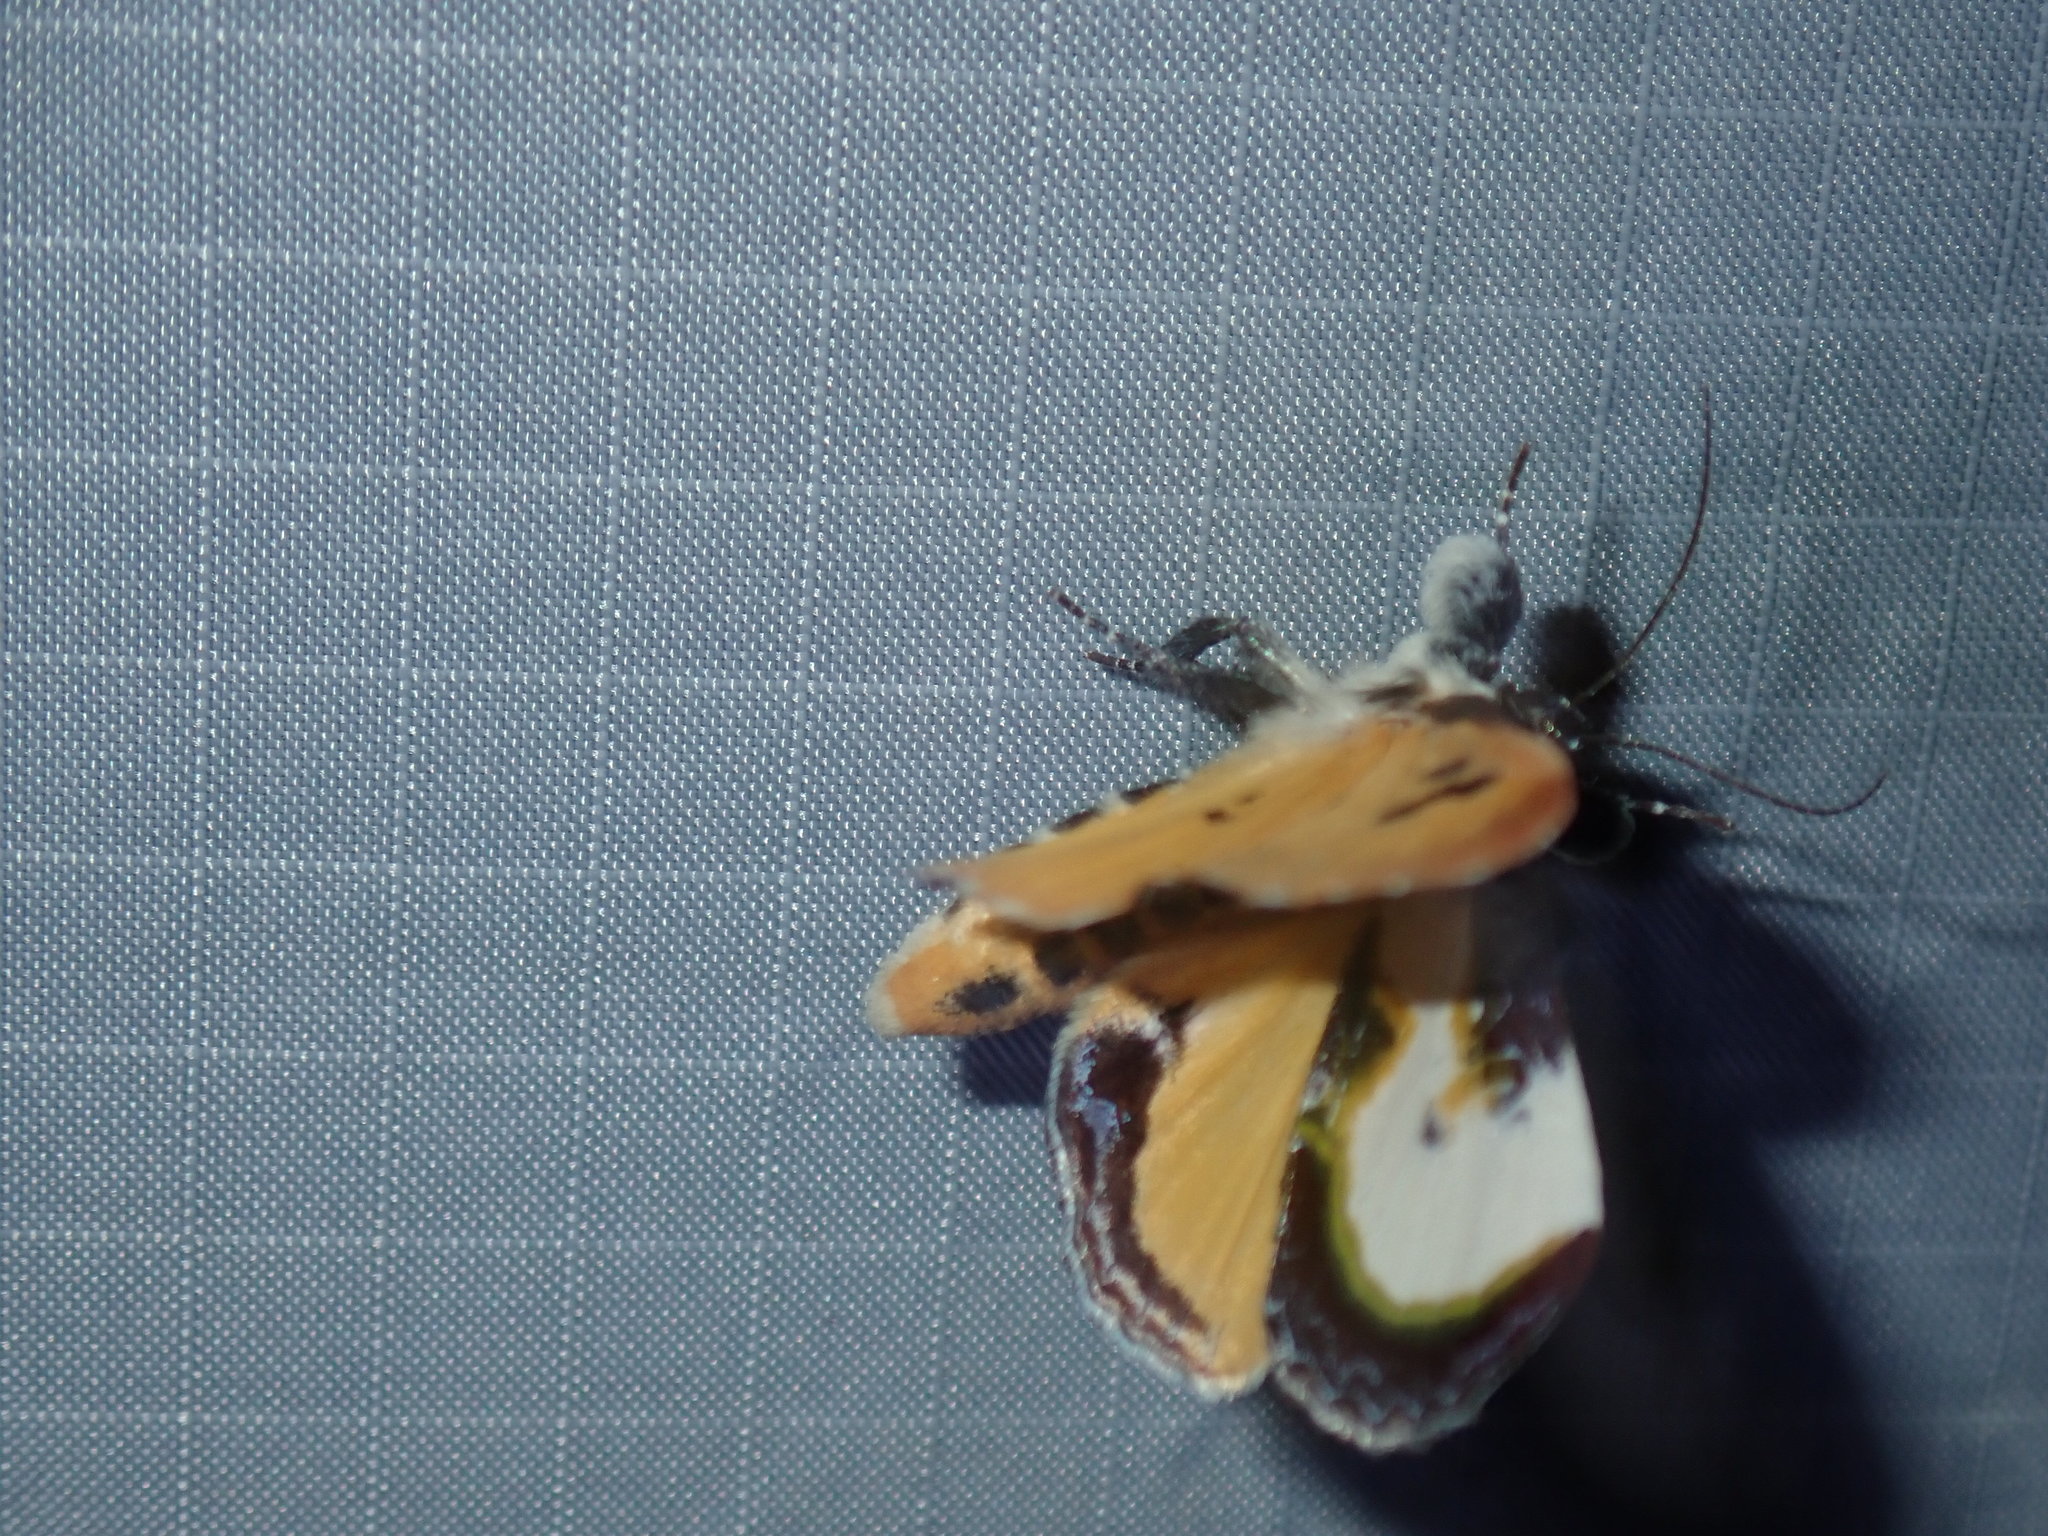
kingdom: Animalia
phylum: Arthropoda
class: Insecta
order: Lepidoptera
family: Noctuidae
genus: Eudryas
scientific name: Eudryas grata
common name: Beautiful wood-nymph
